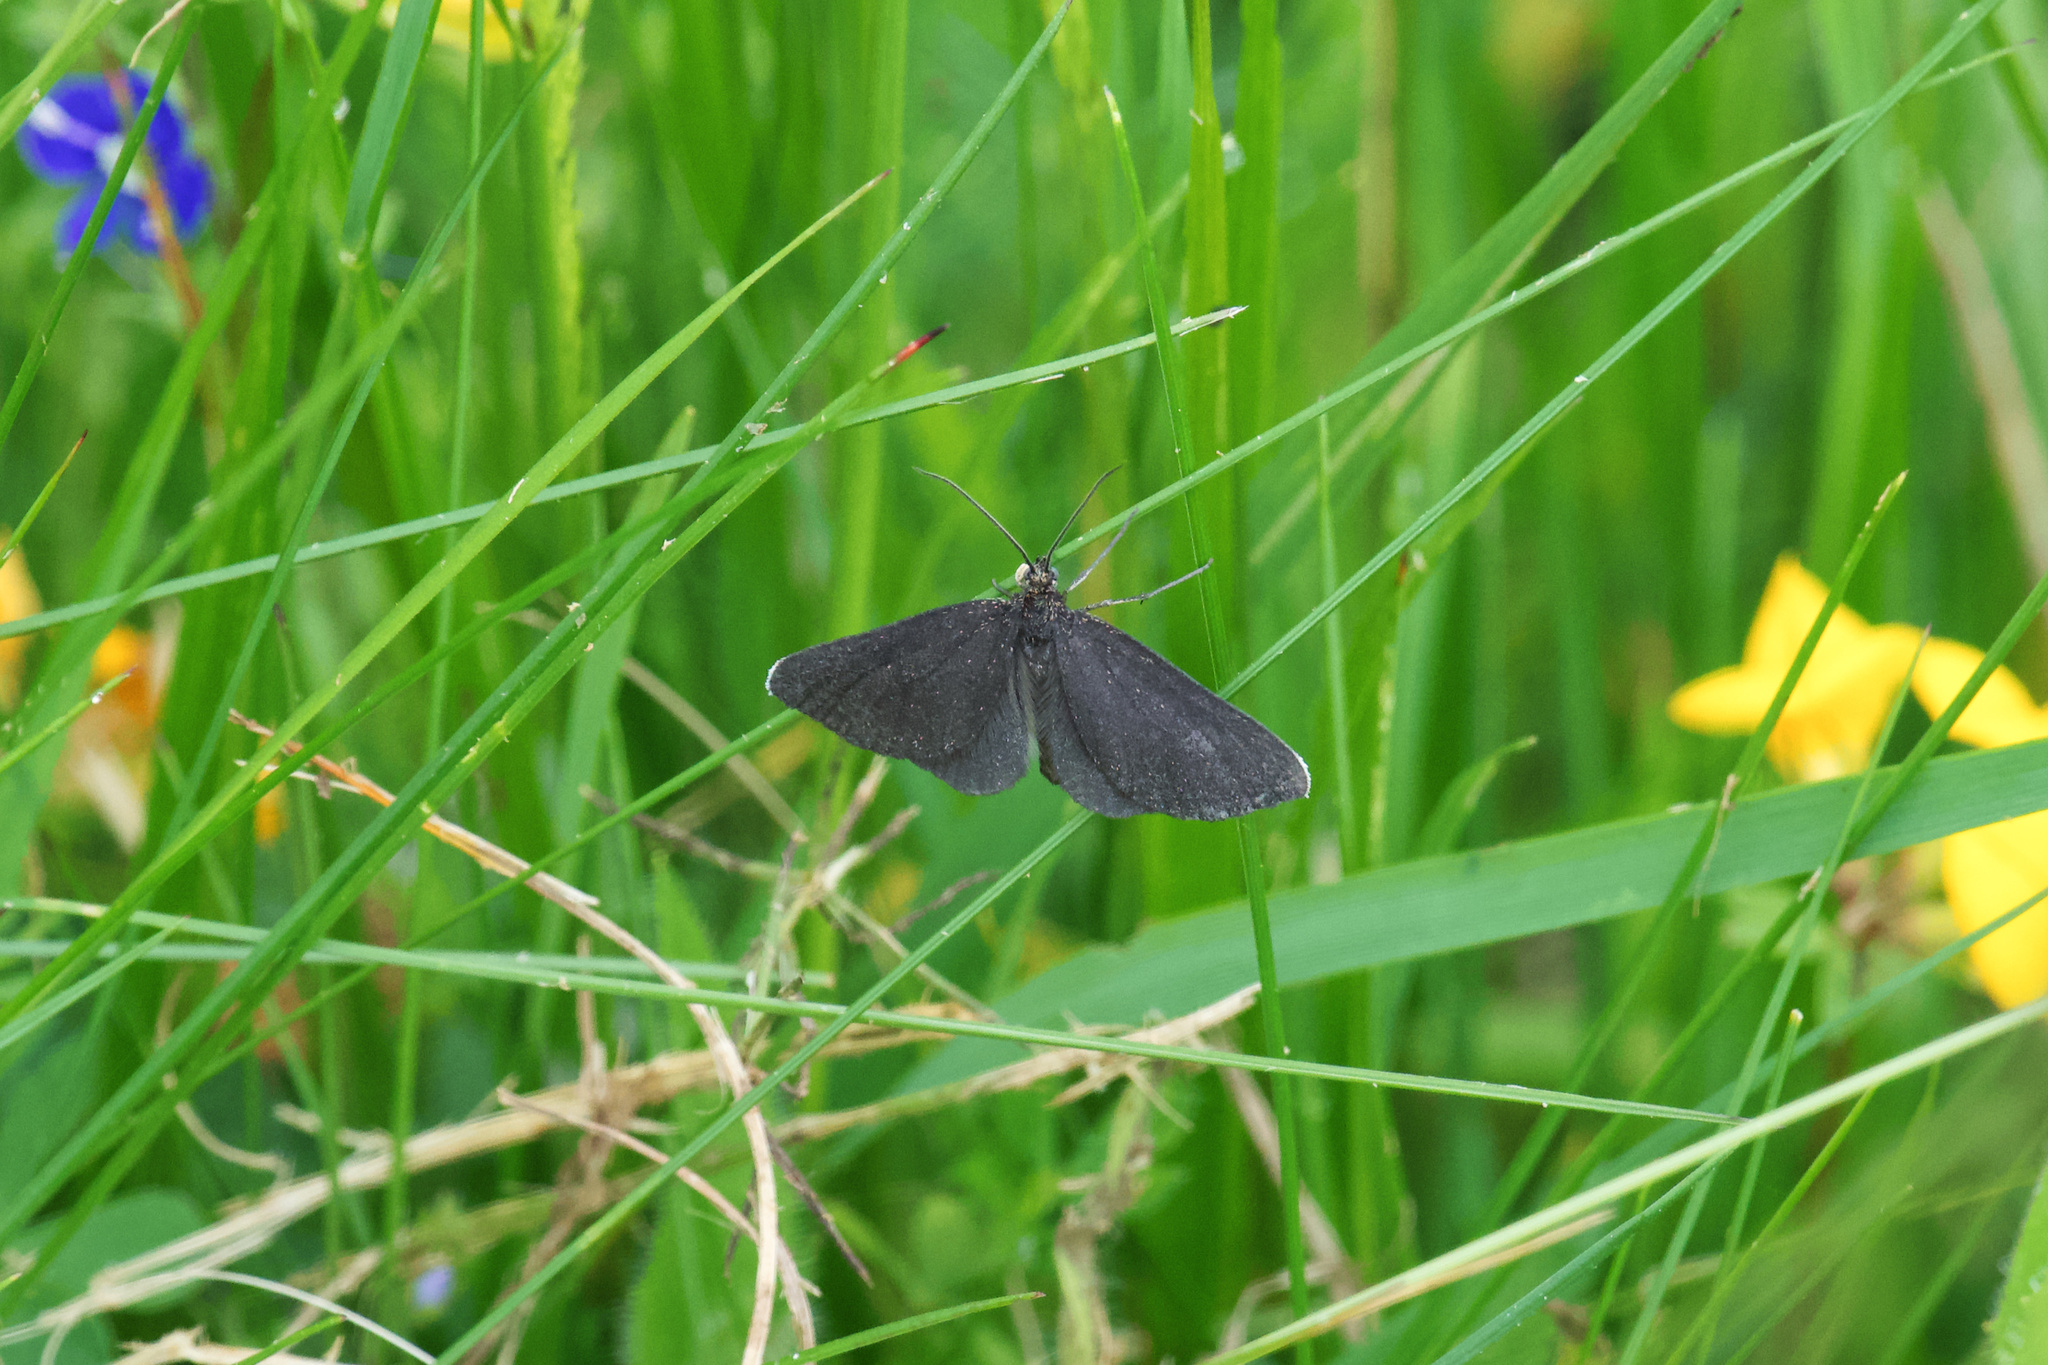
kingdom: Animalia
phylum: Arthropoda
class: Insecta
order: Lepidoptera
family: Geometridae
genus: Odezia
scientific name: Odezia atrata
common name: Chimney sweeper
